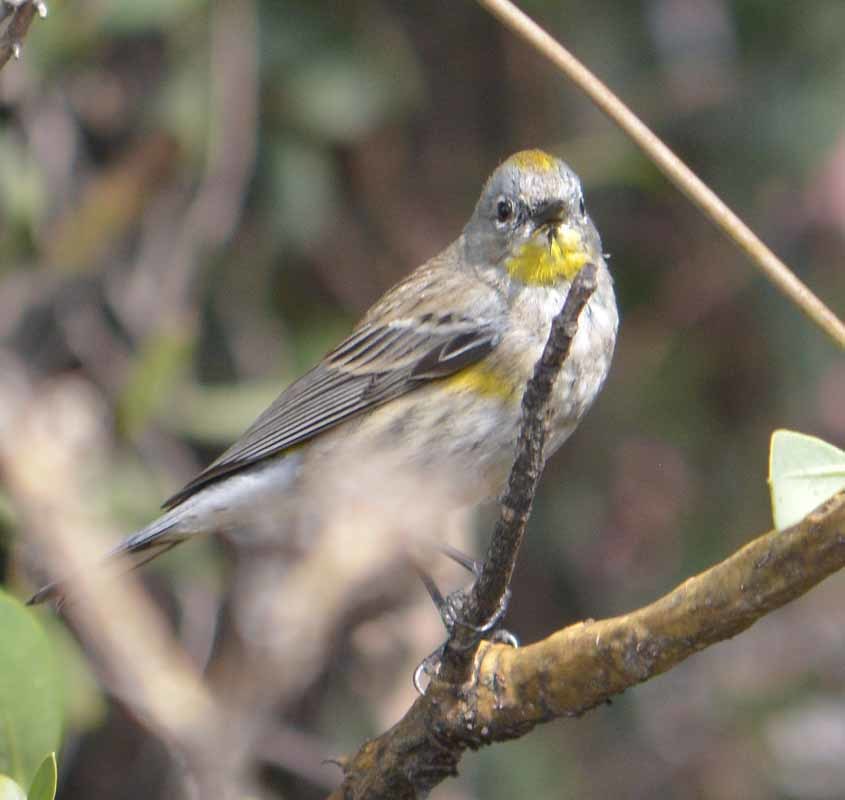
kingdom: Animalia
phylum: Chordata
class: Aves
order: Passeriformes
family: Parulidae
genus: Setophaga
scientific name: Setophaga coronata
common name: Myrtle warbler
